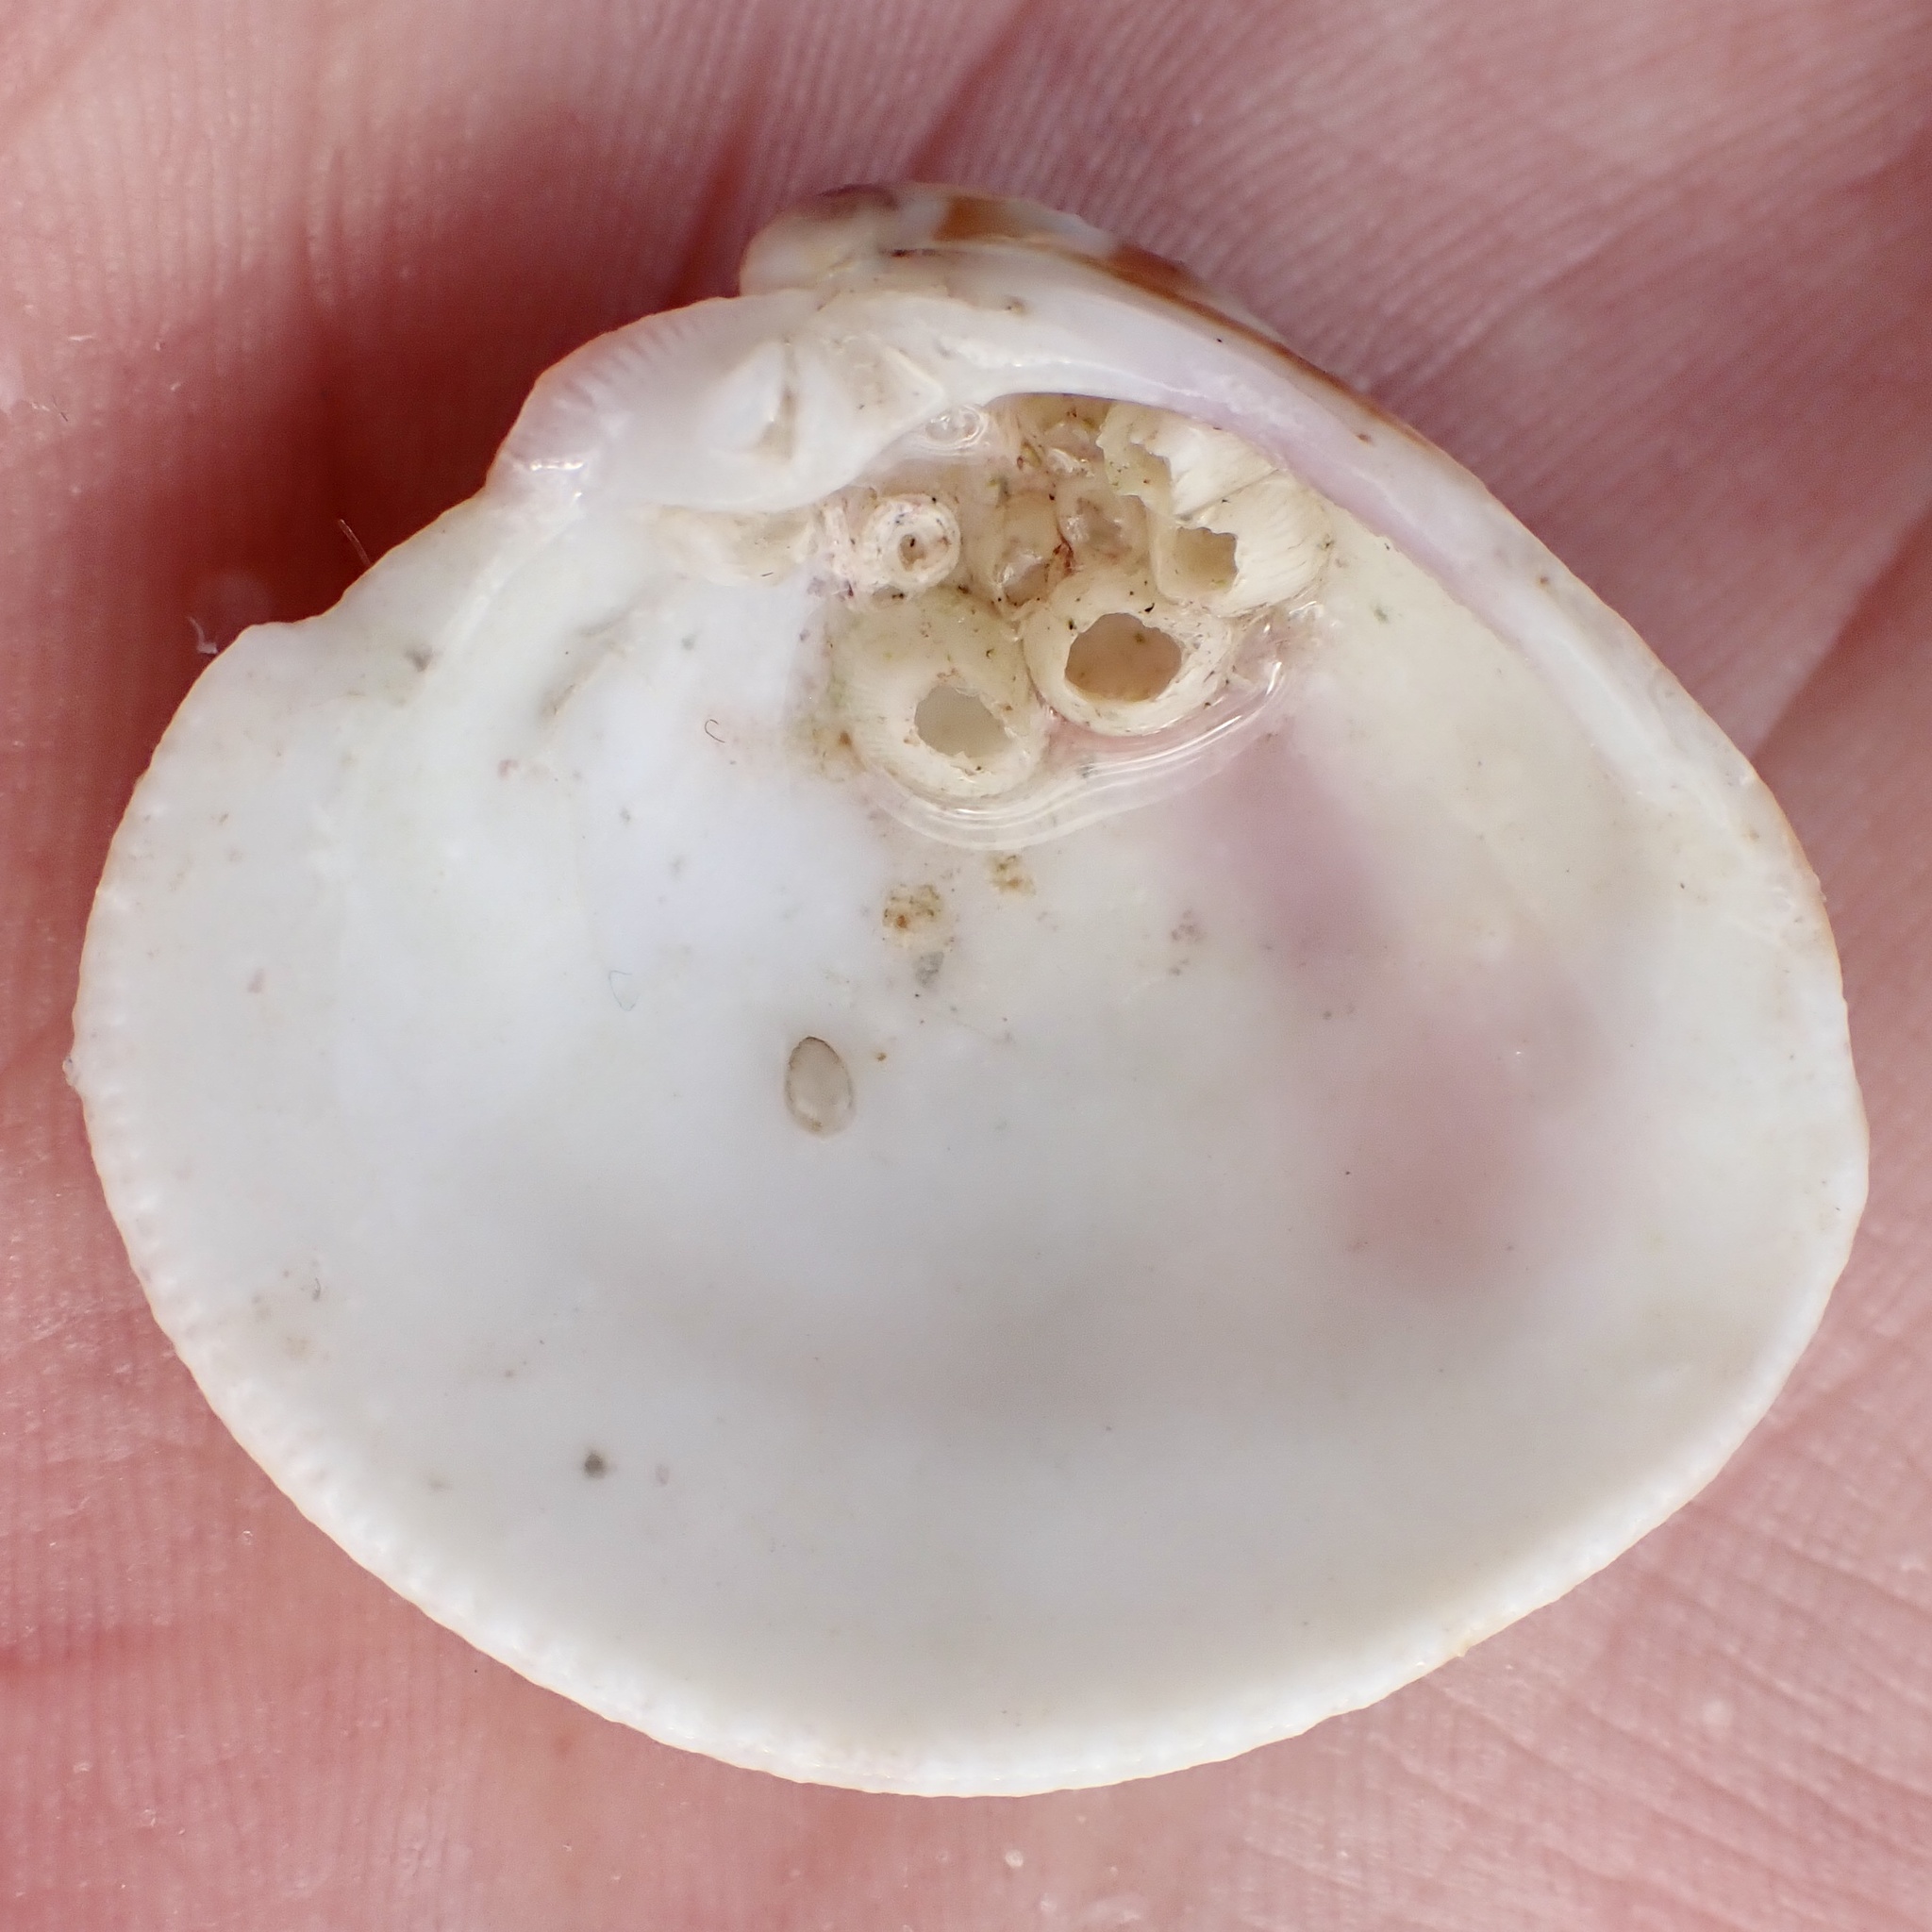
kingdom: Animalia
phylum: Mollusca
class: Bivalvia
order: Venerida
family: Veneridae
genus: Chionopsis
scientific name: Chionopsis intapurpurea
